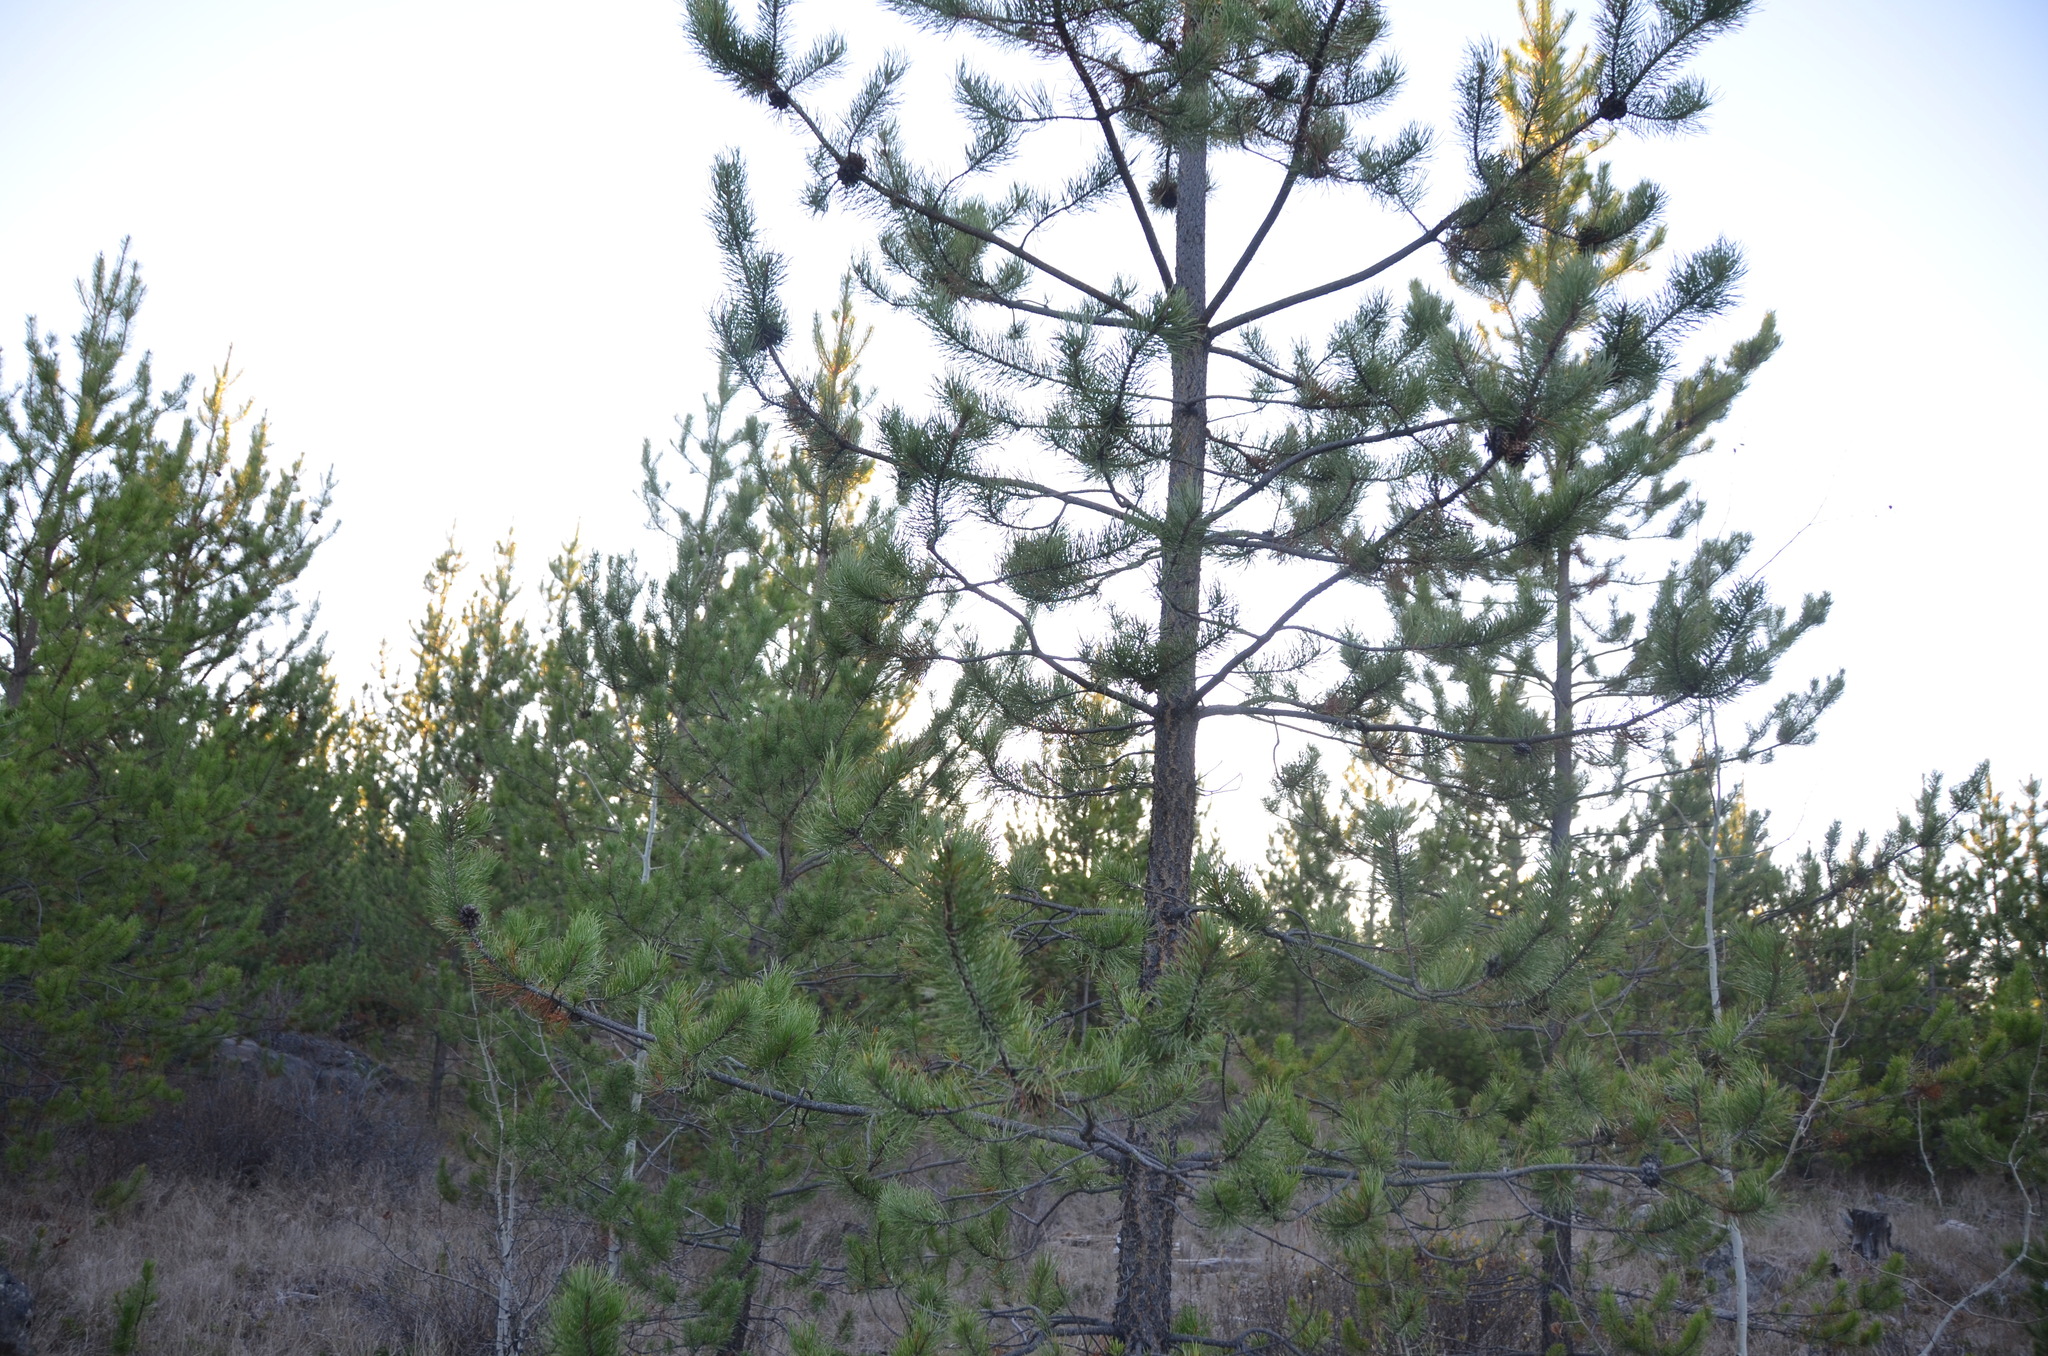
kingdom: Plantae
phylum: Tracheophyta
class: Pinopsida
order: Pinales
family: Pinaceae
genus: Pinus
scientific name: Pinus contorta
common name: Lodgepole pine
